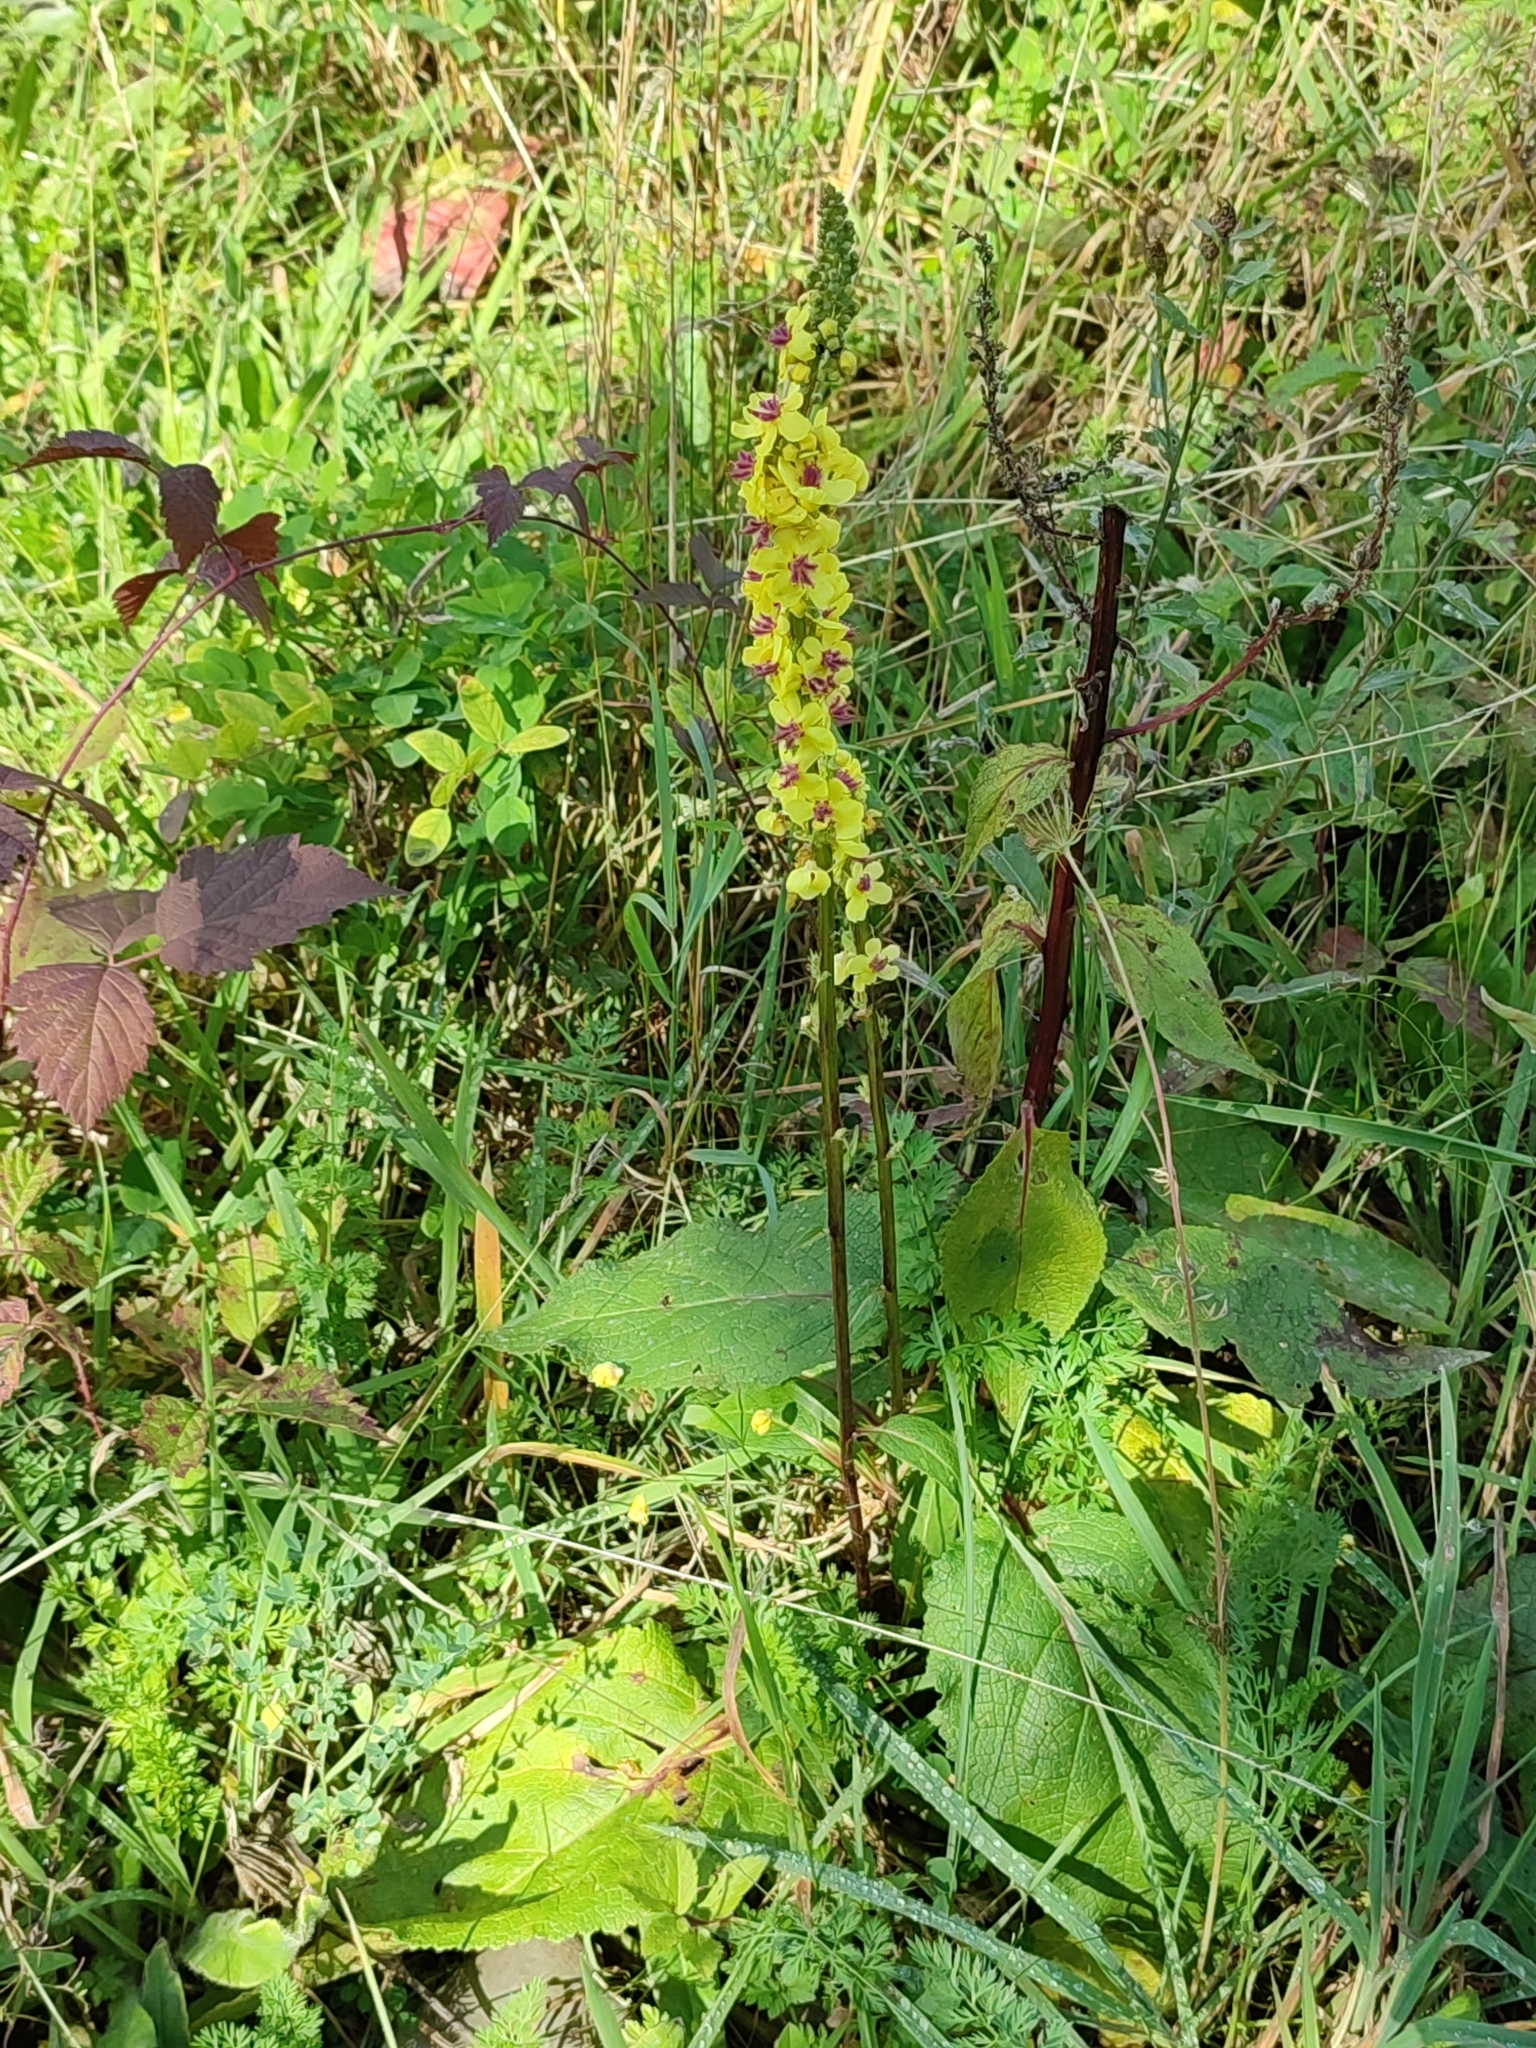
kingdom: Plantae
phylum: Tracheophyta
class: Magnoliopsida
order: Lamiales
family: Scrophulariaceae
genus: Verbascum
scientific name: Verbascum nigrum
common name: Dark mullein
